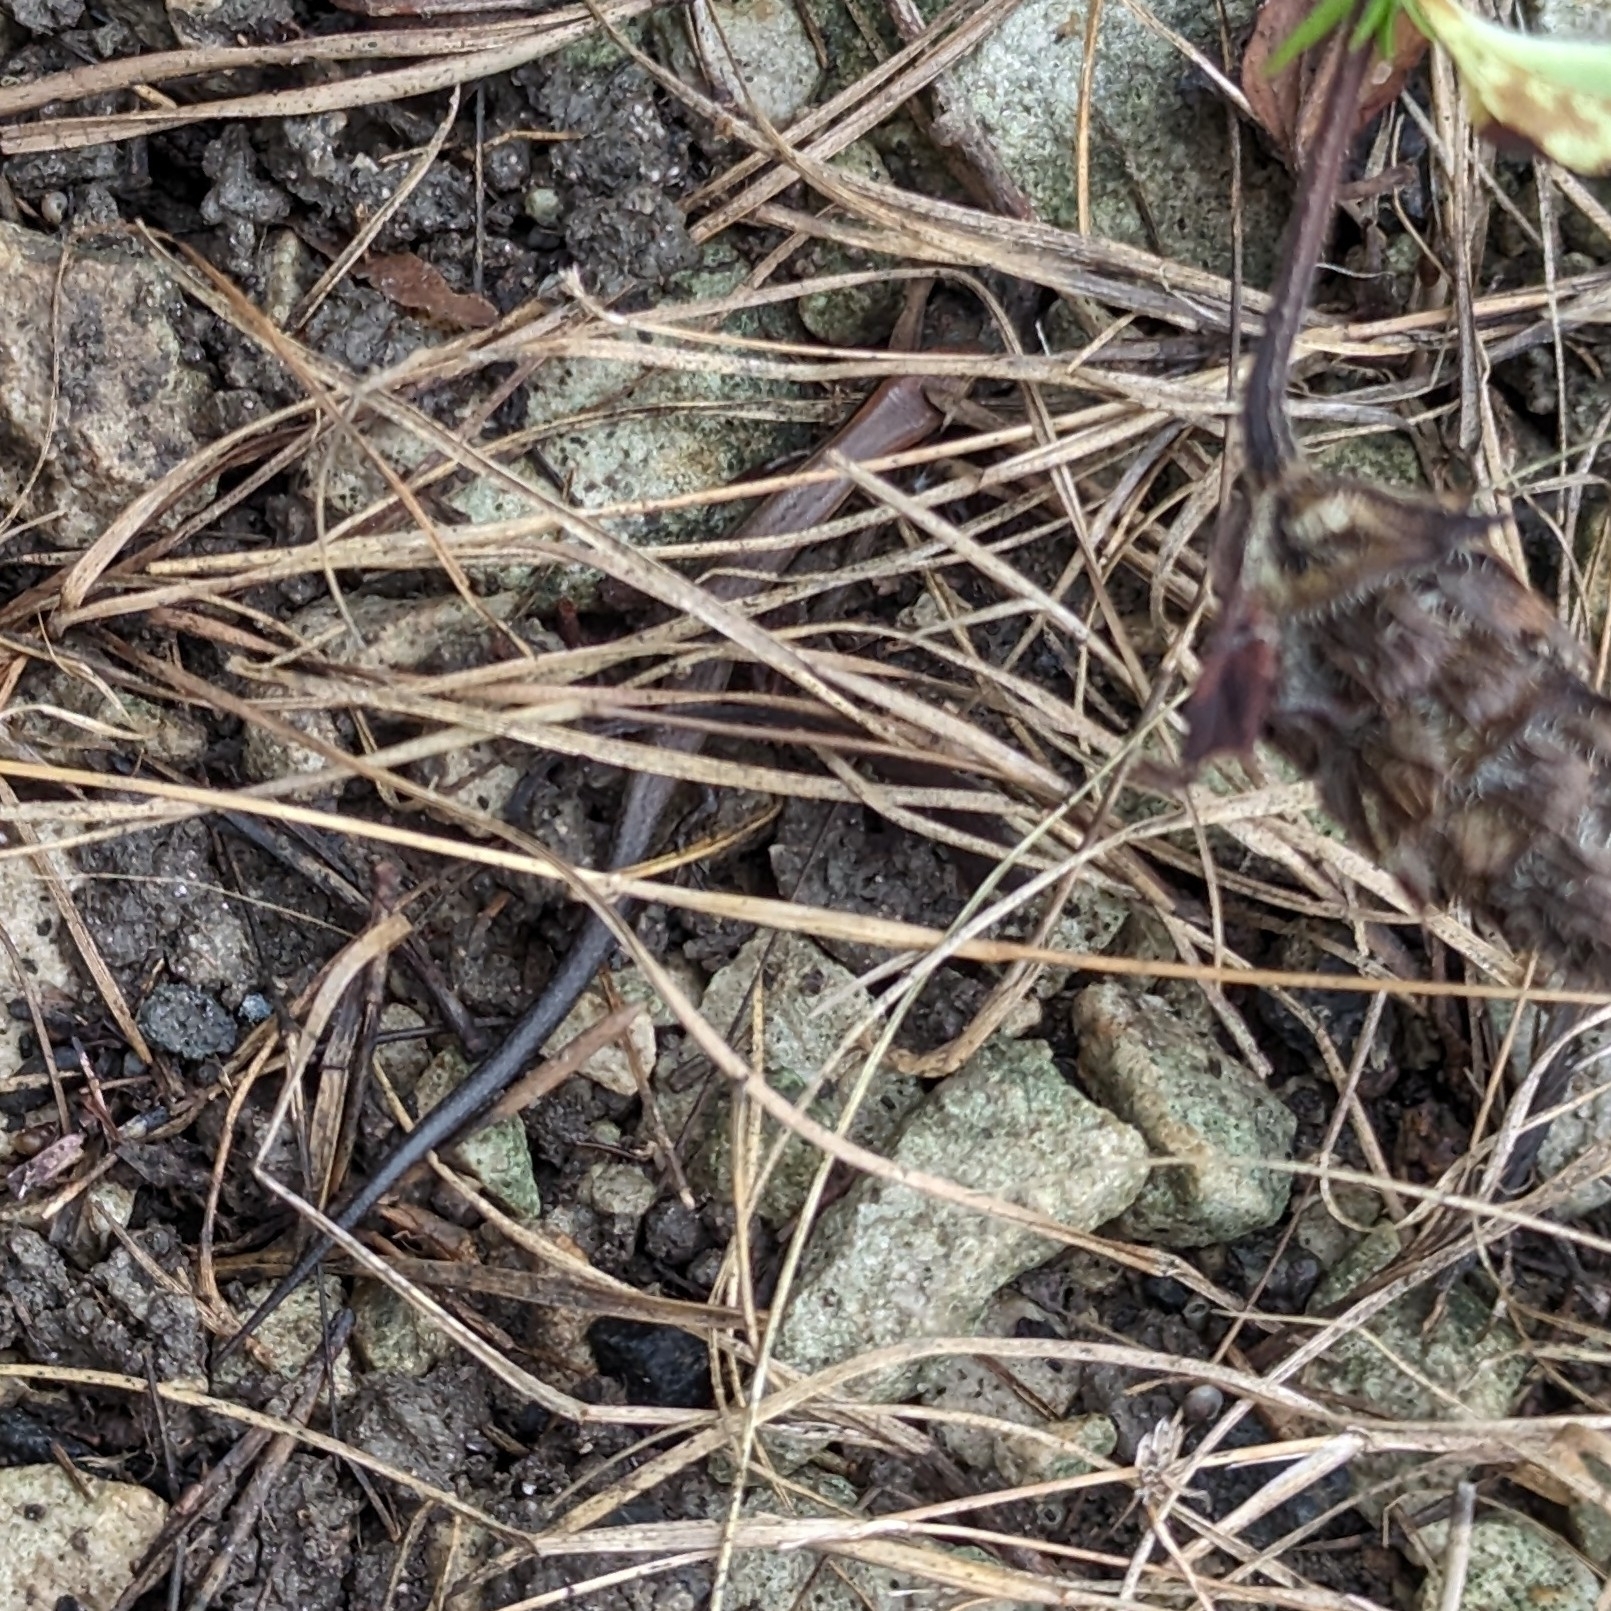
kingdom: Animalia
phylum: Chordata
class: Squamata
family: Scincidae
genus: Scincella
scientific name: Scincella lateralis
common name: Ground skink
